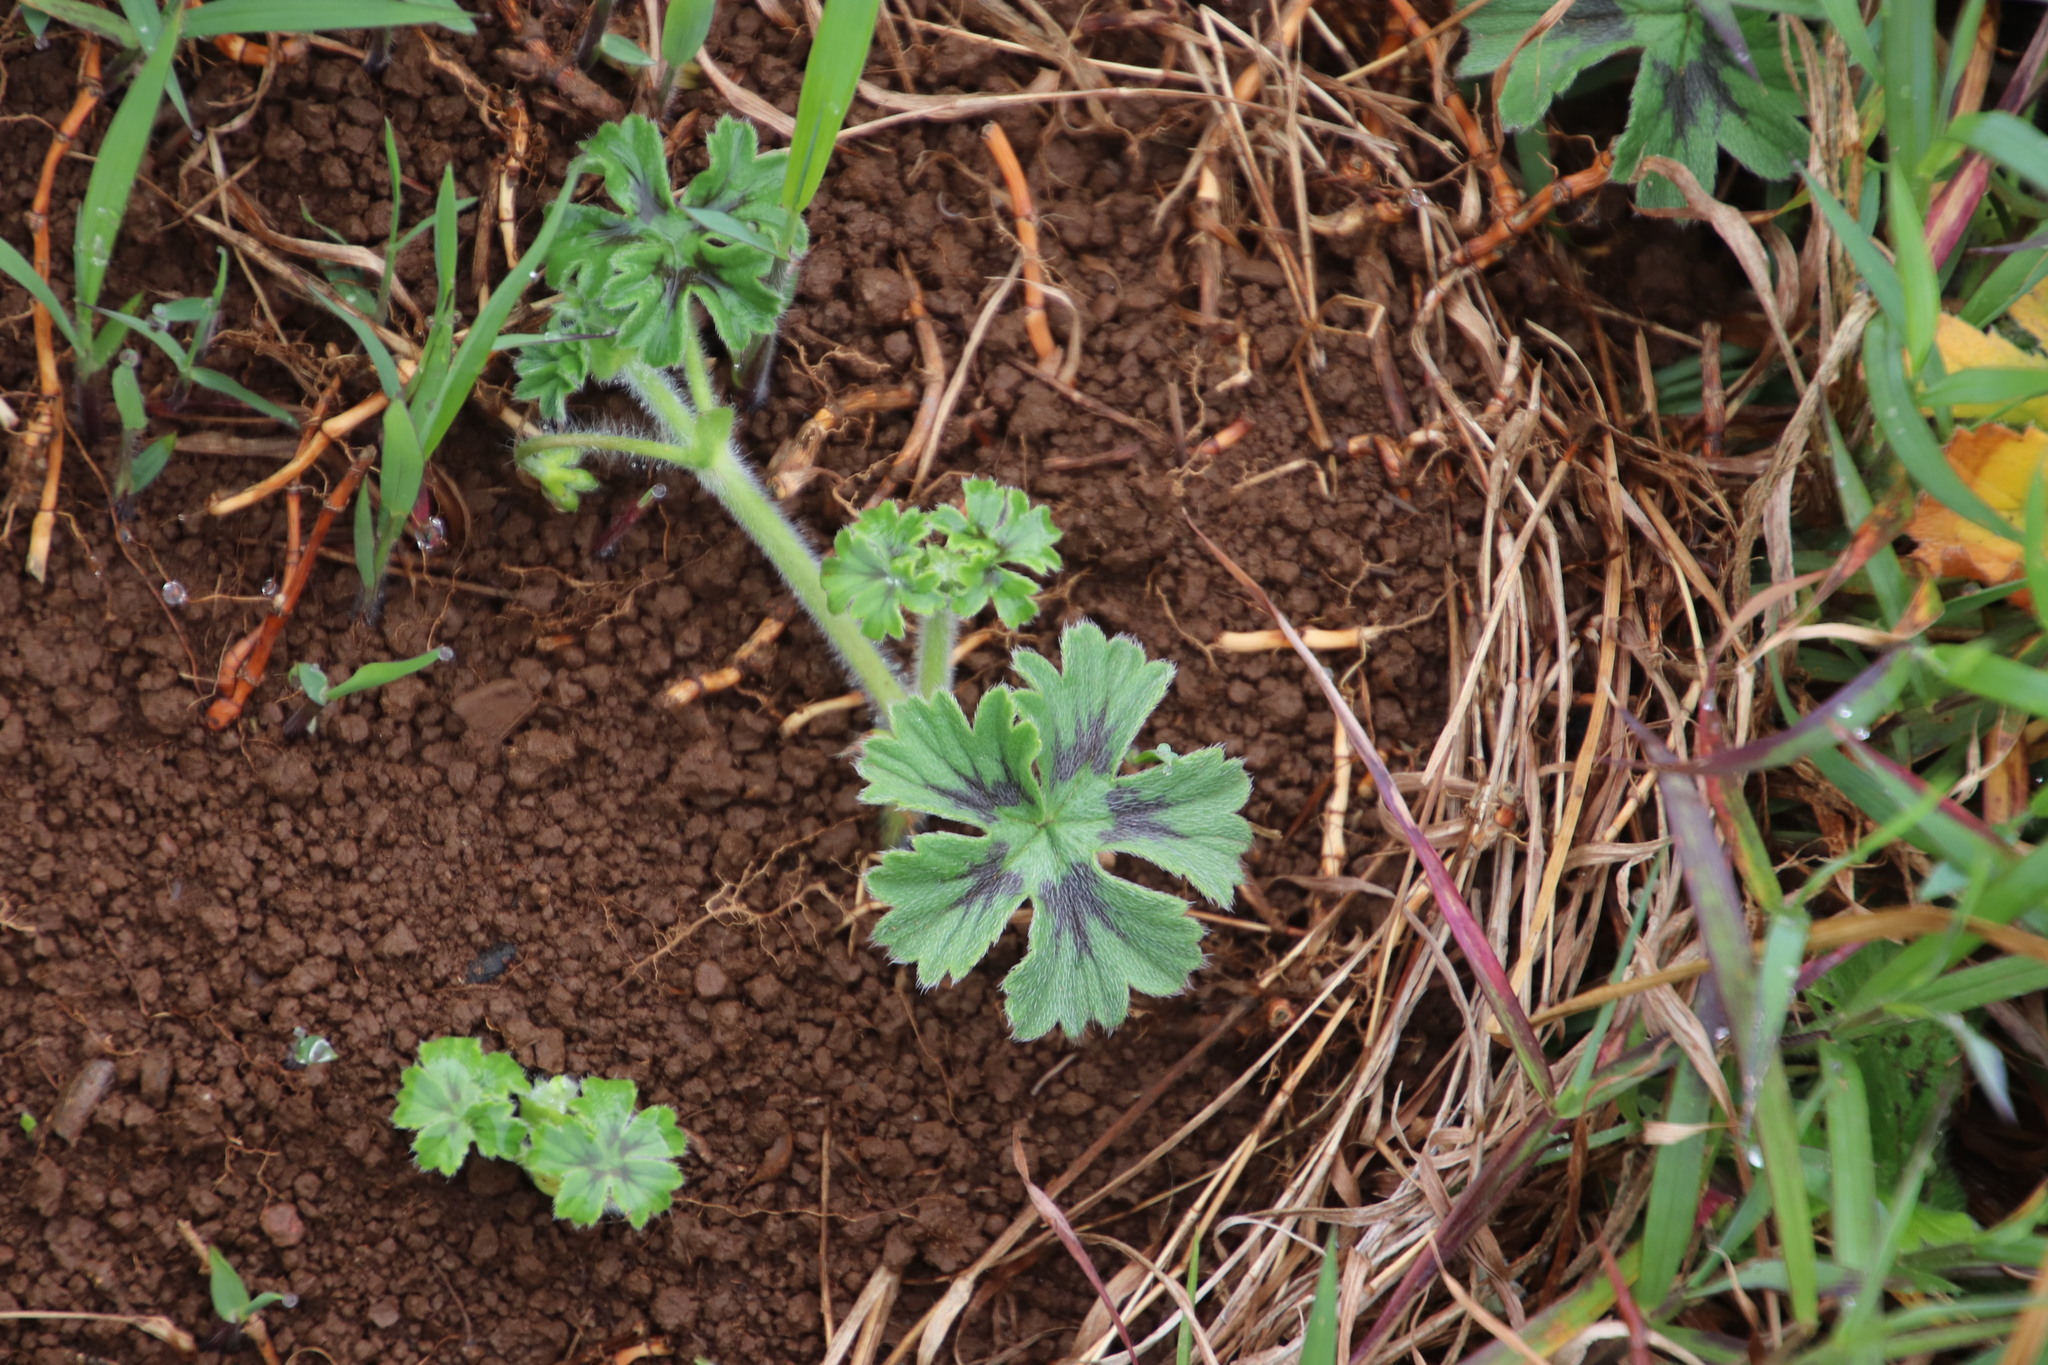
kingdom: Plantae
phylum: Tracheophyta
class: Magnoliopsida
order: Geraniales
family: Geraniaceae
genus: Pelargonium
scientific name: Pelargonium alchemilloides
